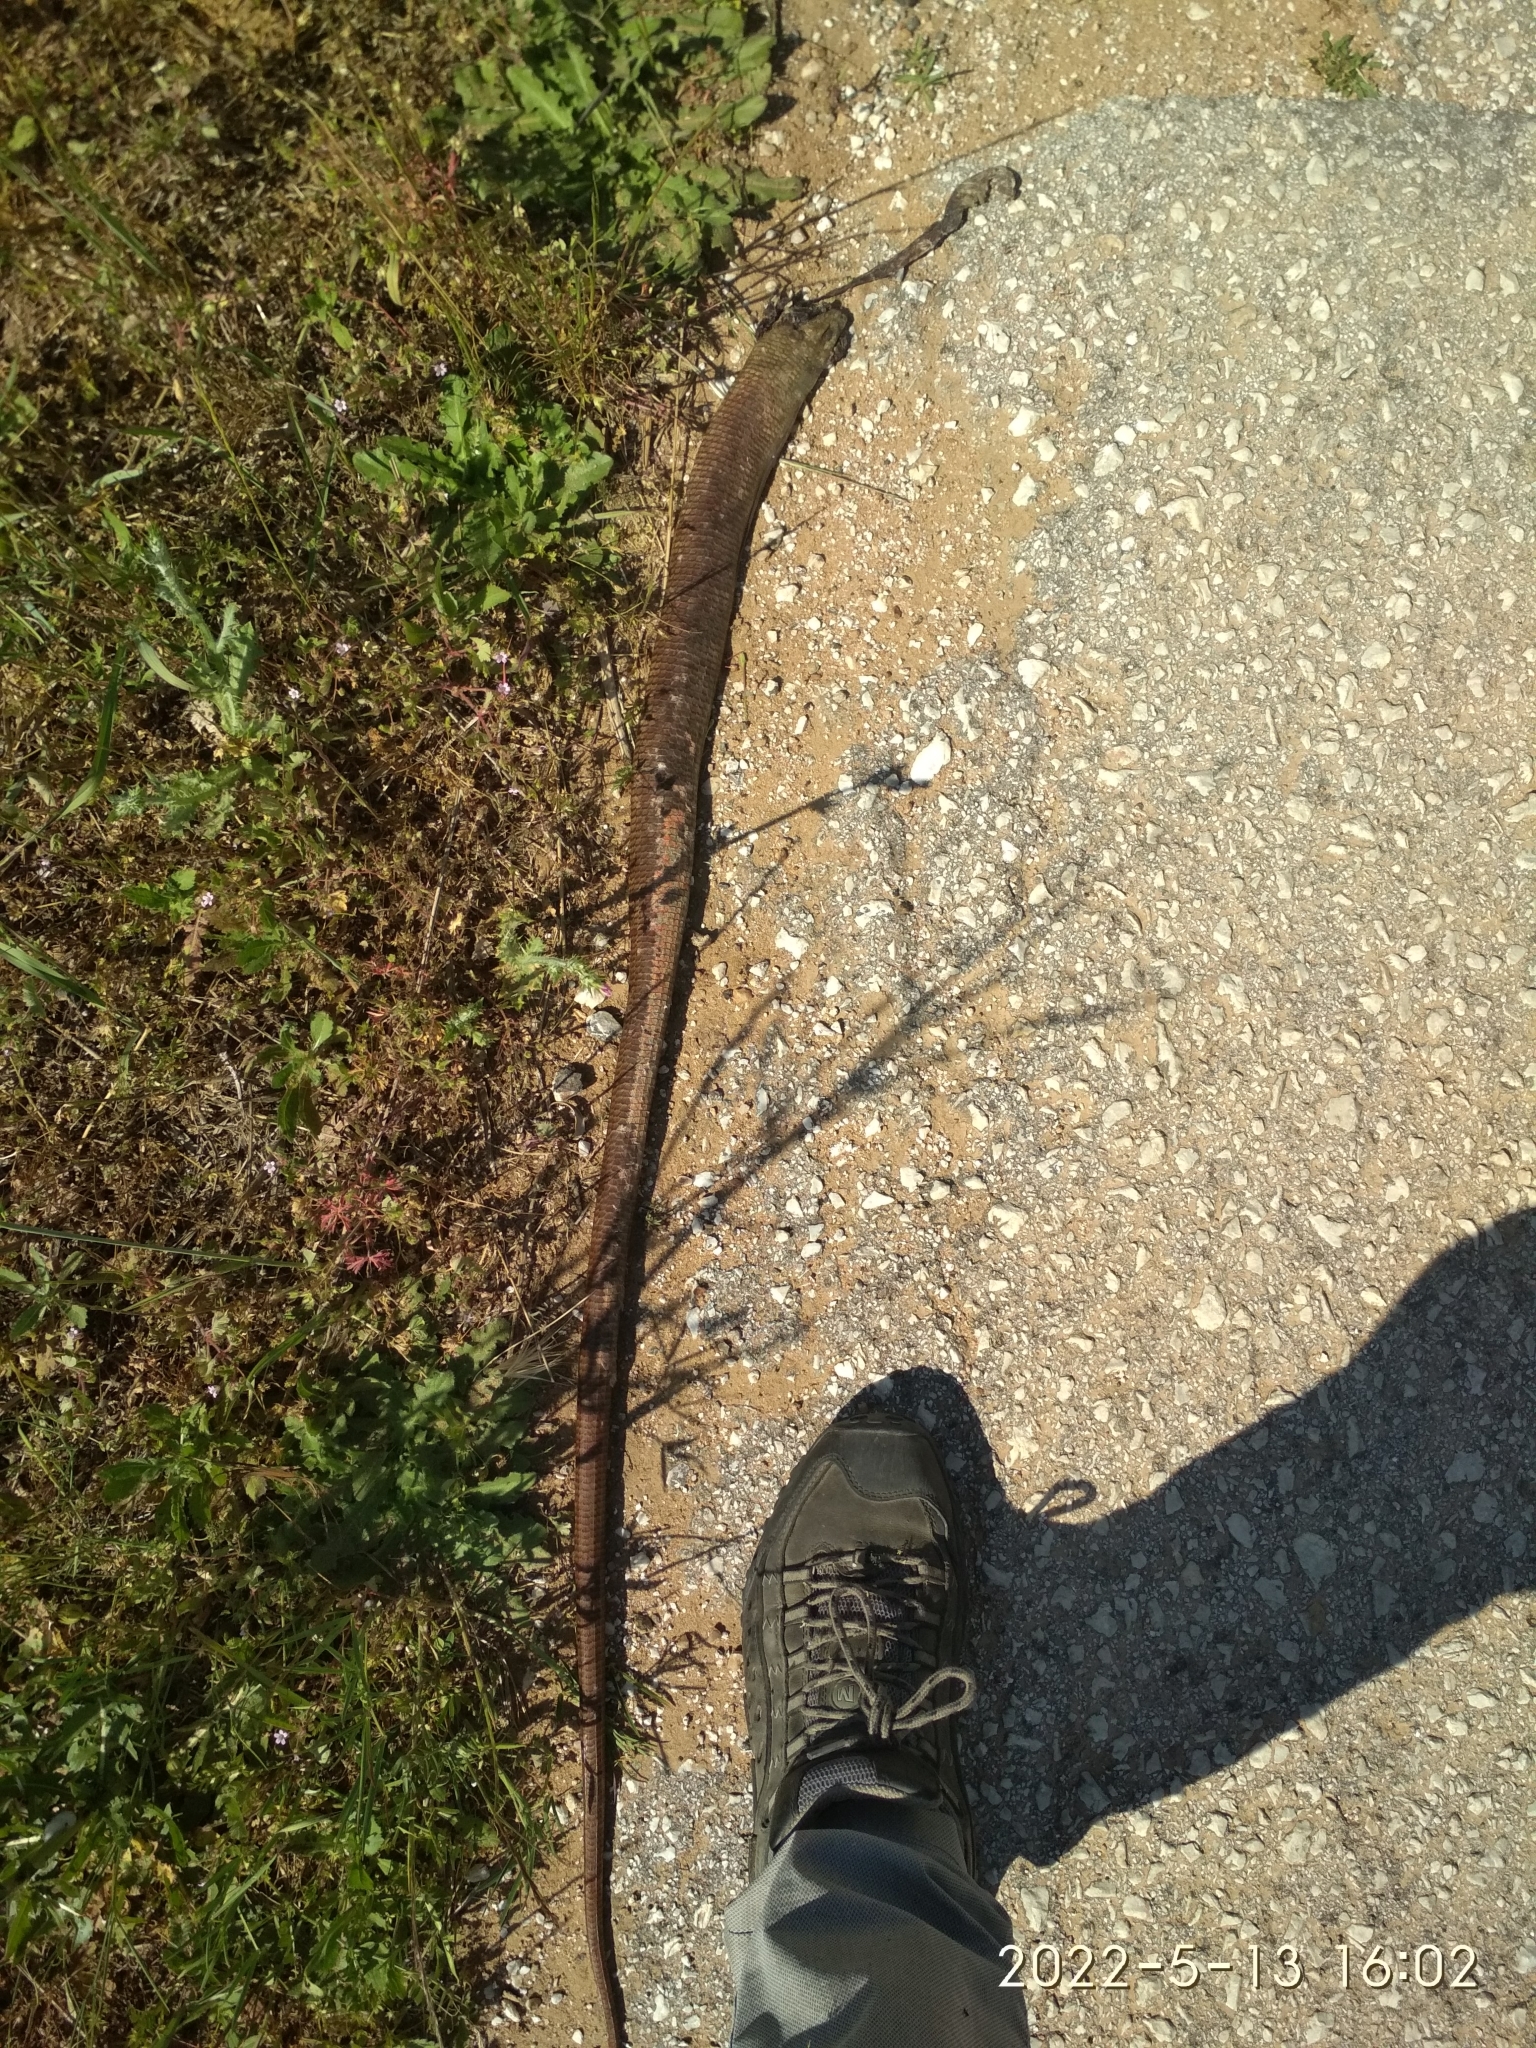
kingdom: Animalia
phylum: Chordata
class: Squamata
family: Anguidae
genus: Pseudopus
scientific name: Pseudopus apodus
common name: European glass lizard
